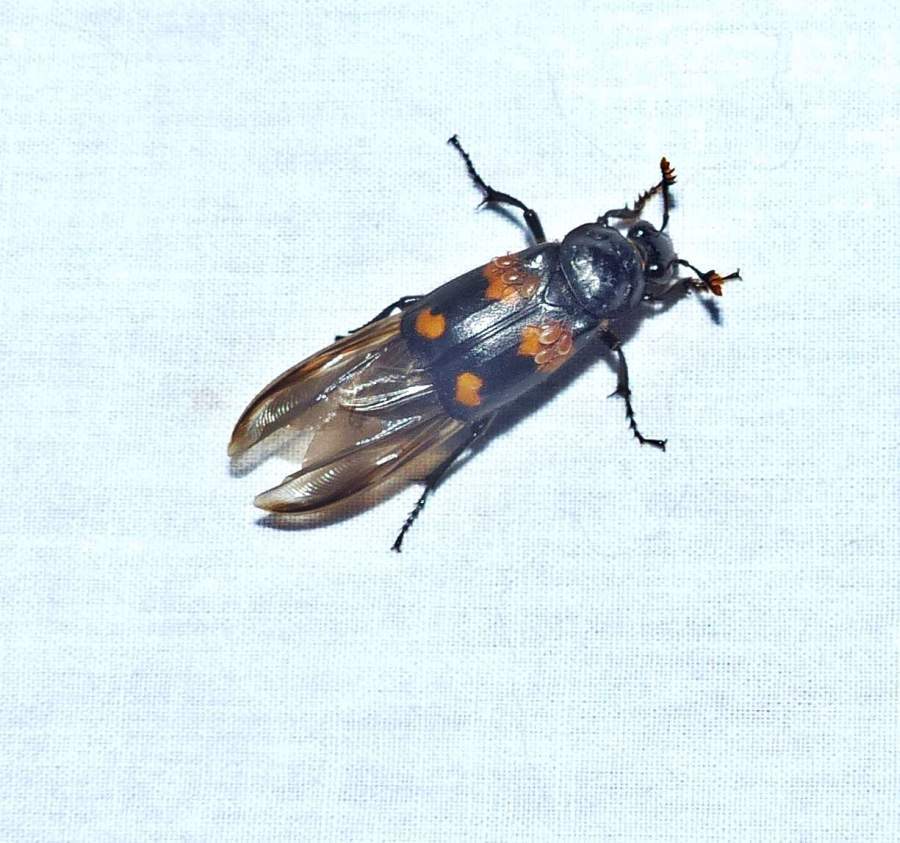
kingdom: Animalia
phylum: Arthropoda
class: Insecta
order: Coleoptera
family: Staphylinidae
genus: Nicrophorus
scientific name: Nicrophorus orbicollis
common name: Roundneck sexton beetle
